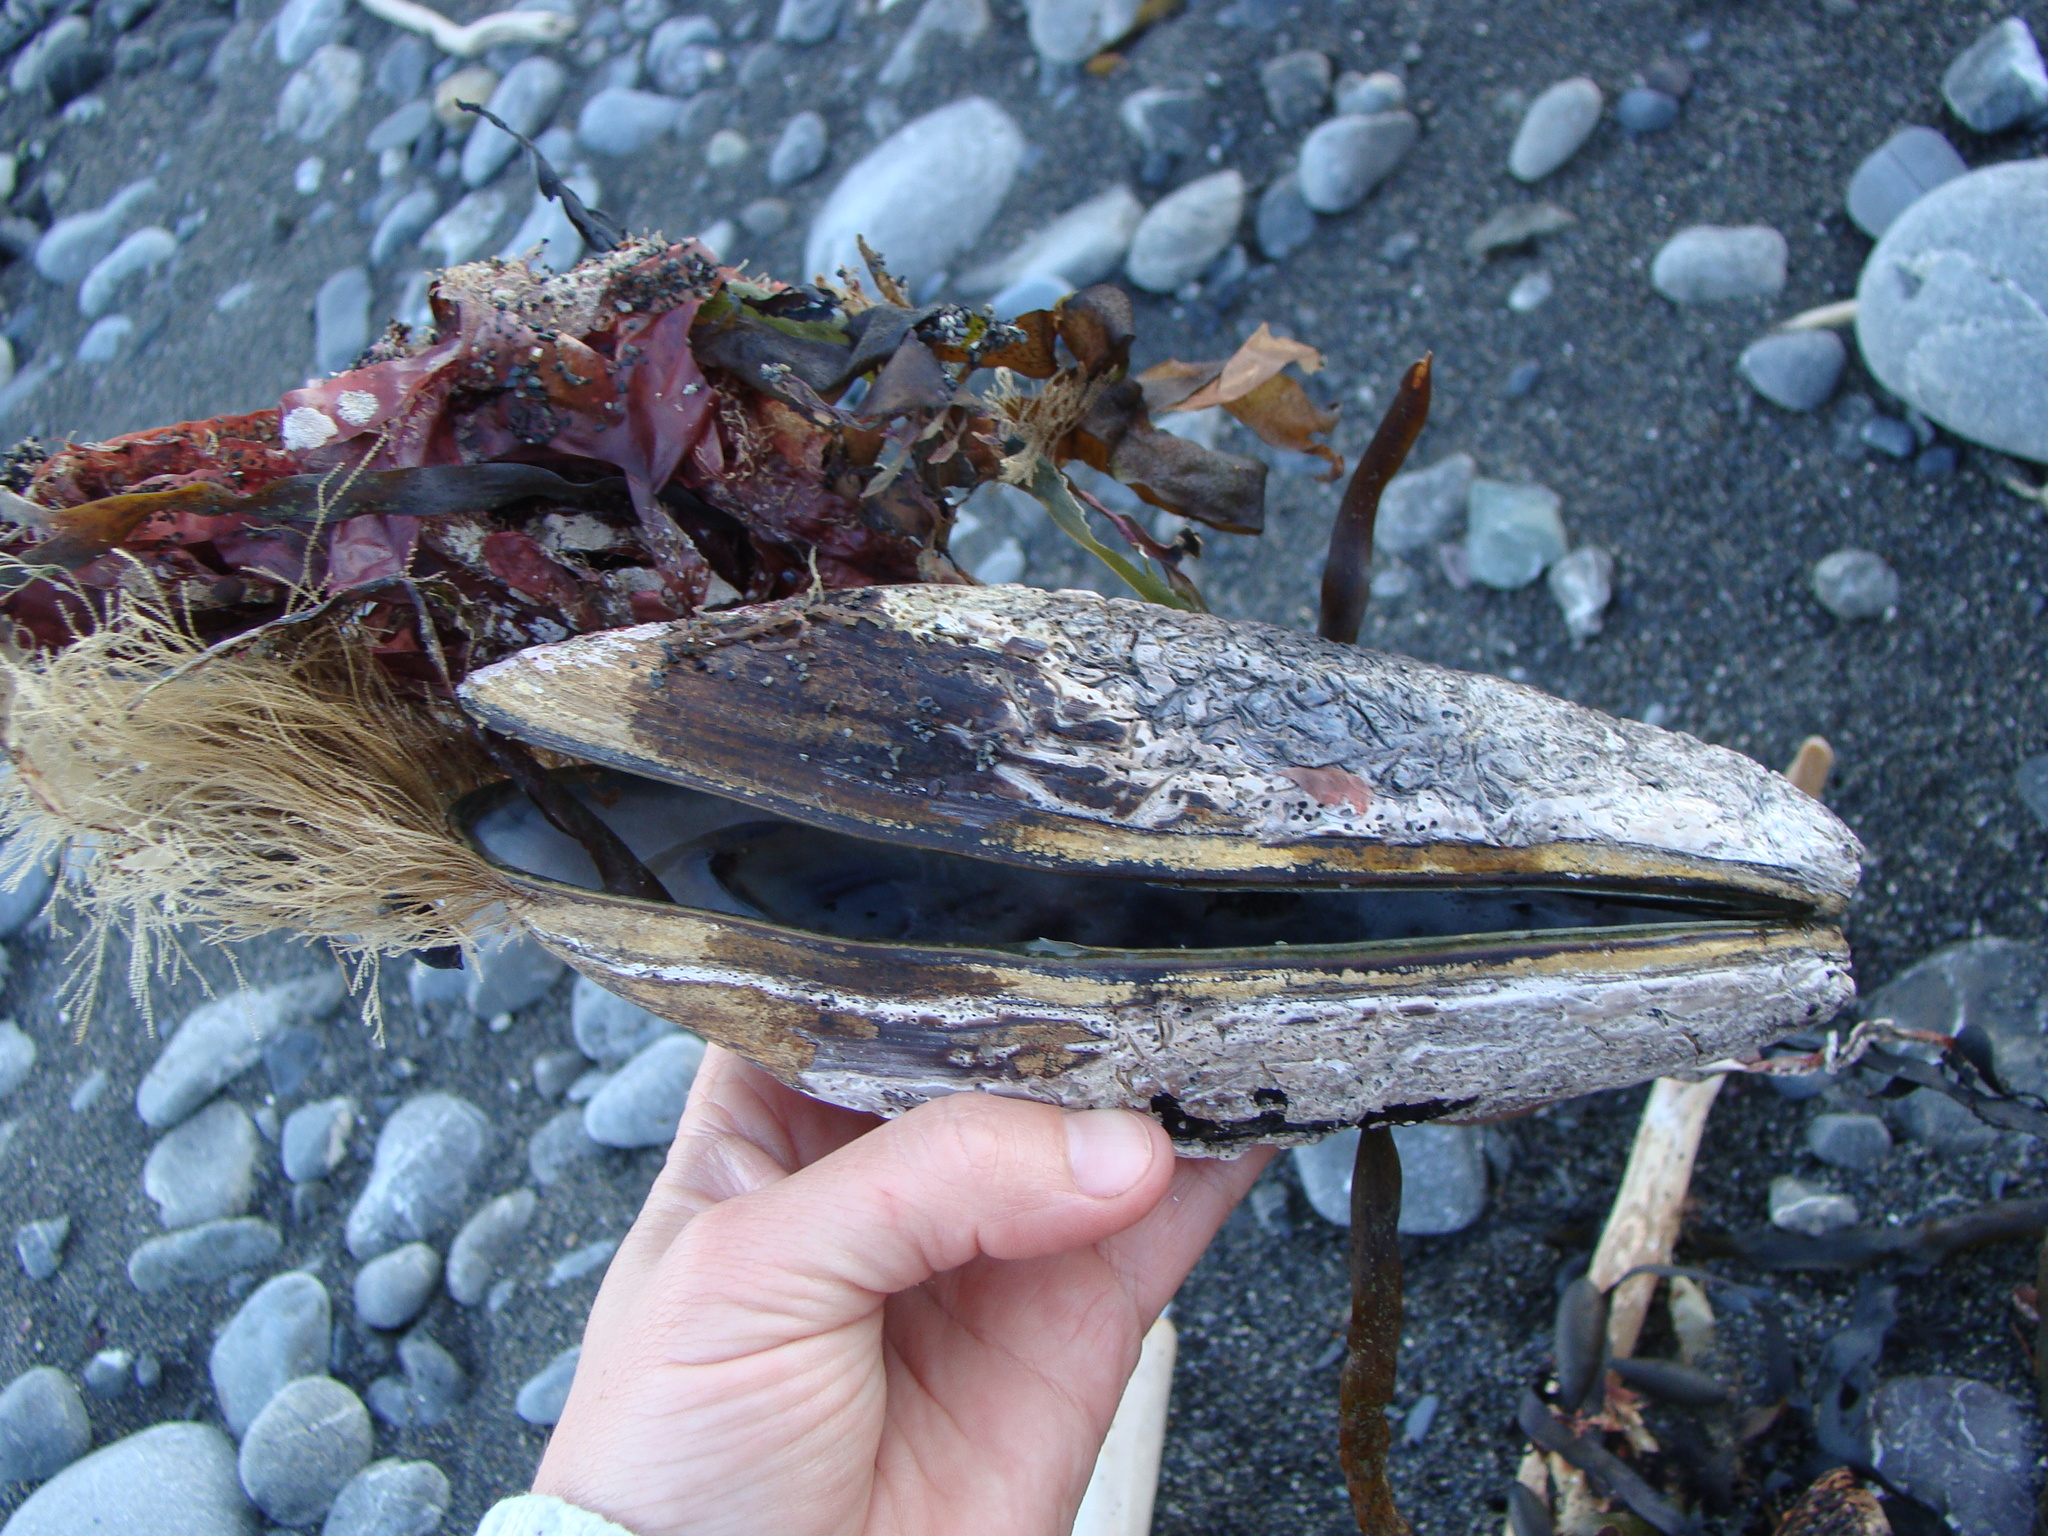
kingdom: Animalia
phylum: Mollusca
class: Bivalvia
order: Mytilida
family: Mytilidae
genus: Perna
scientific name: Perna canaliculus
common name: New zealand greenshelltm
